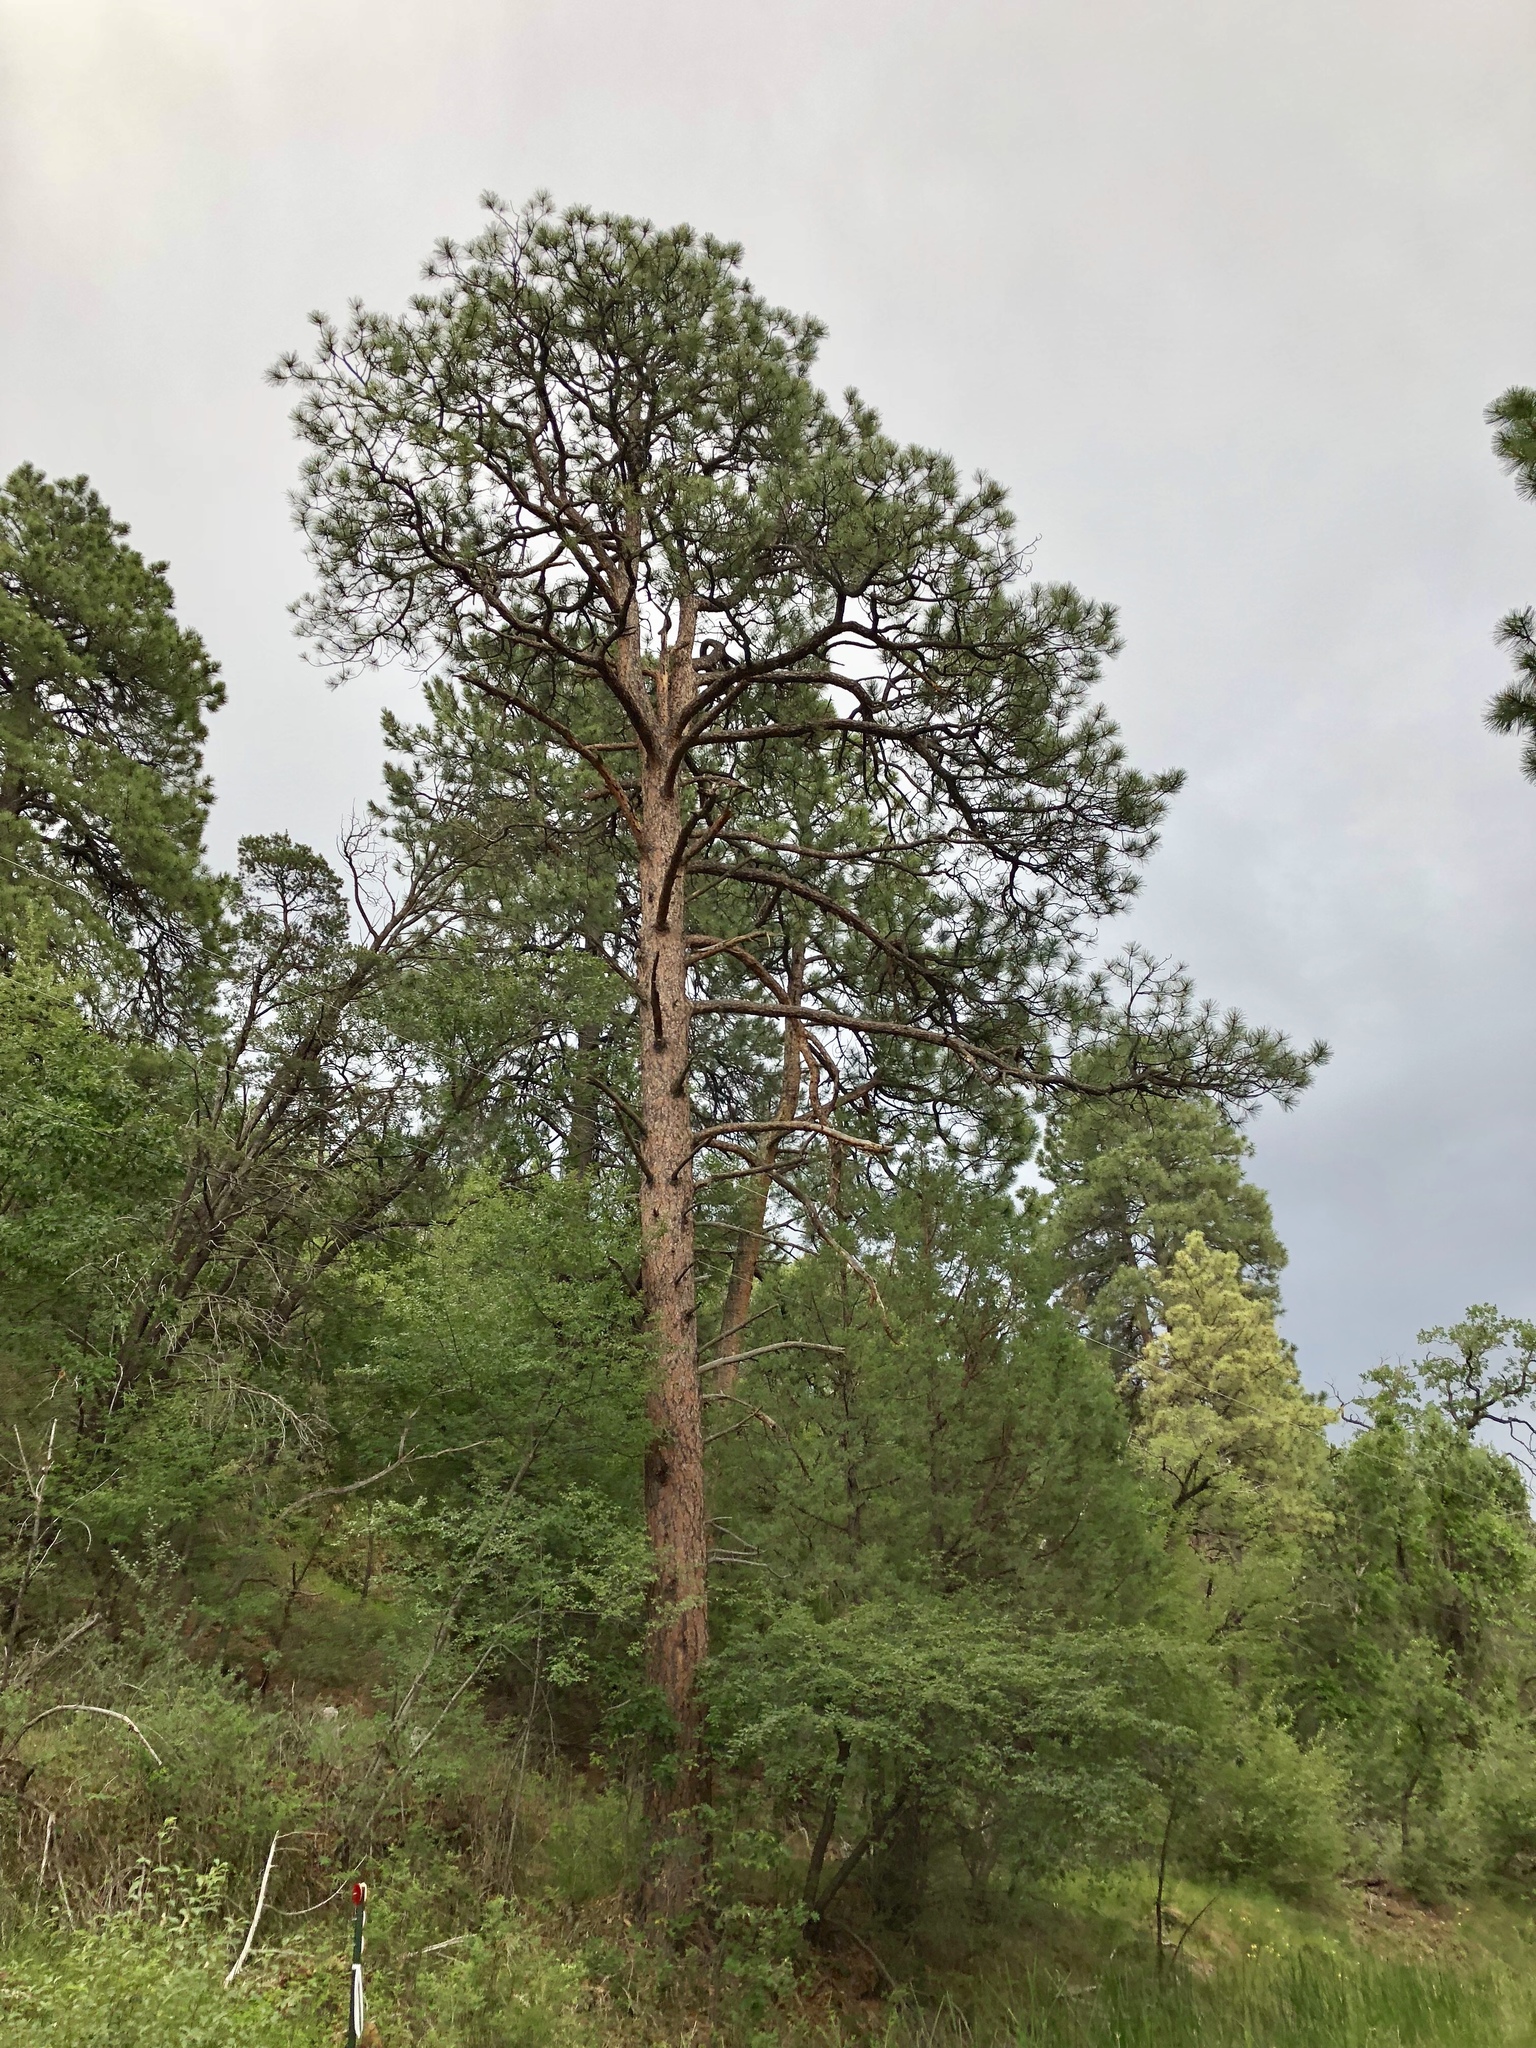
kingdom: Plantae
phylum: Tracheophyta
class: Pinopsida
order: Pinales
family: Pinaceae
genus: Pinus
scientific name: Pinus ponderosa
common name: Western yellow-pine
